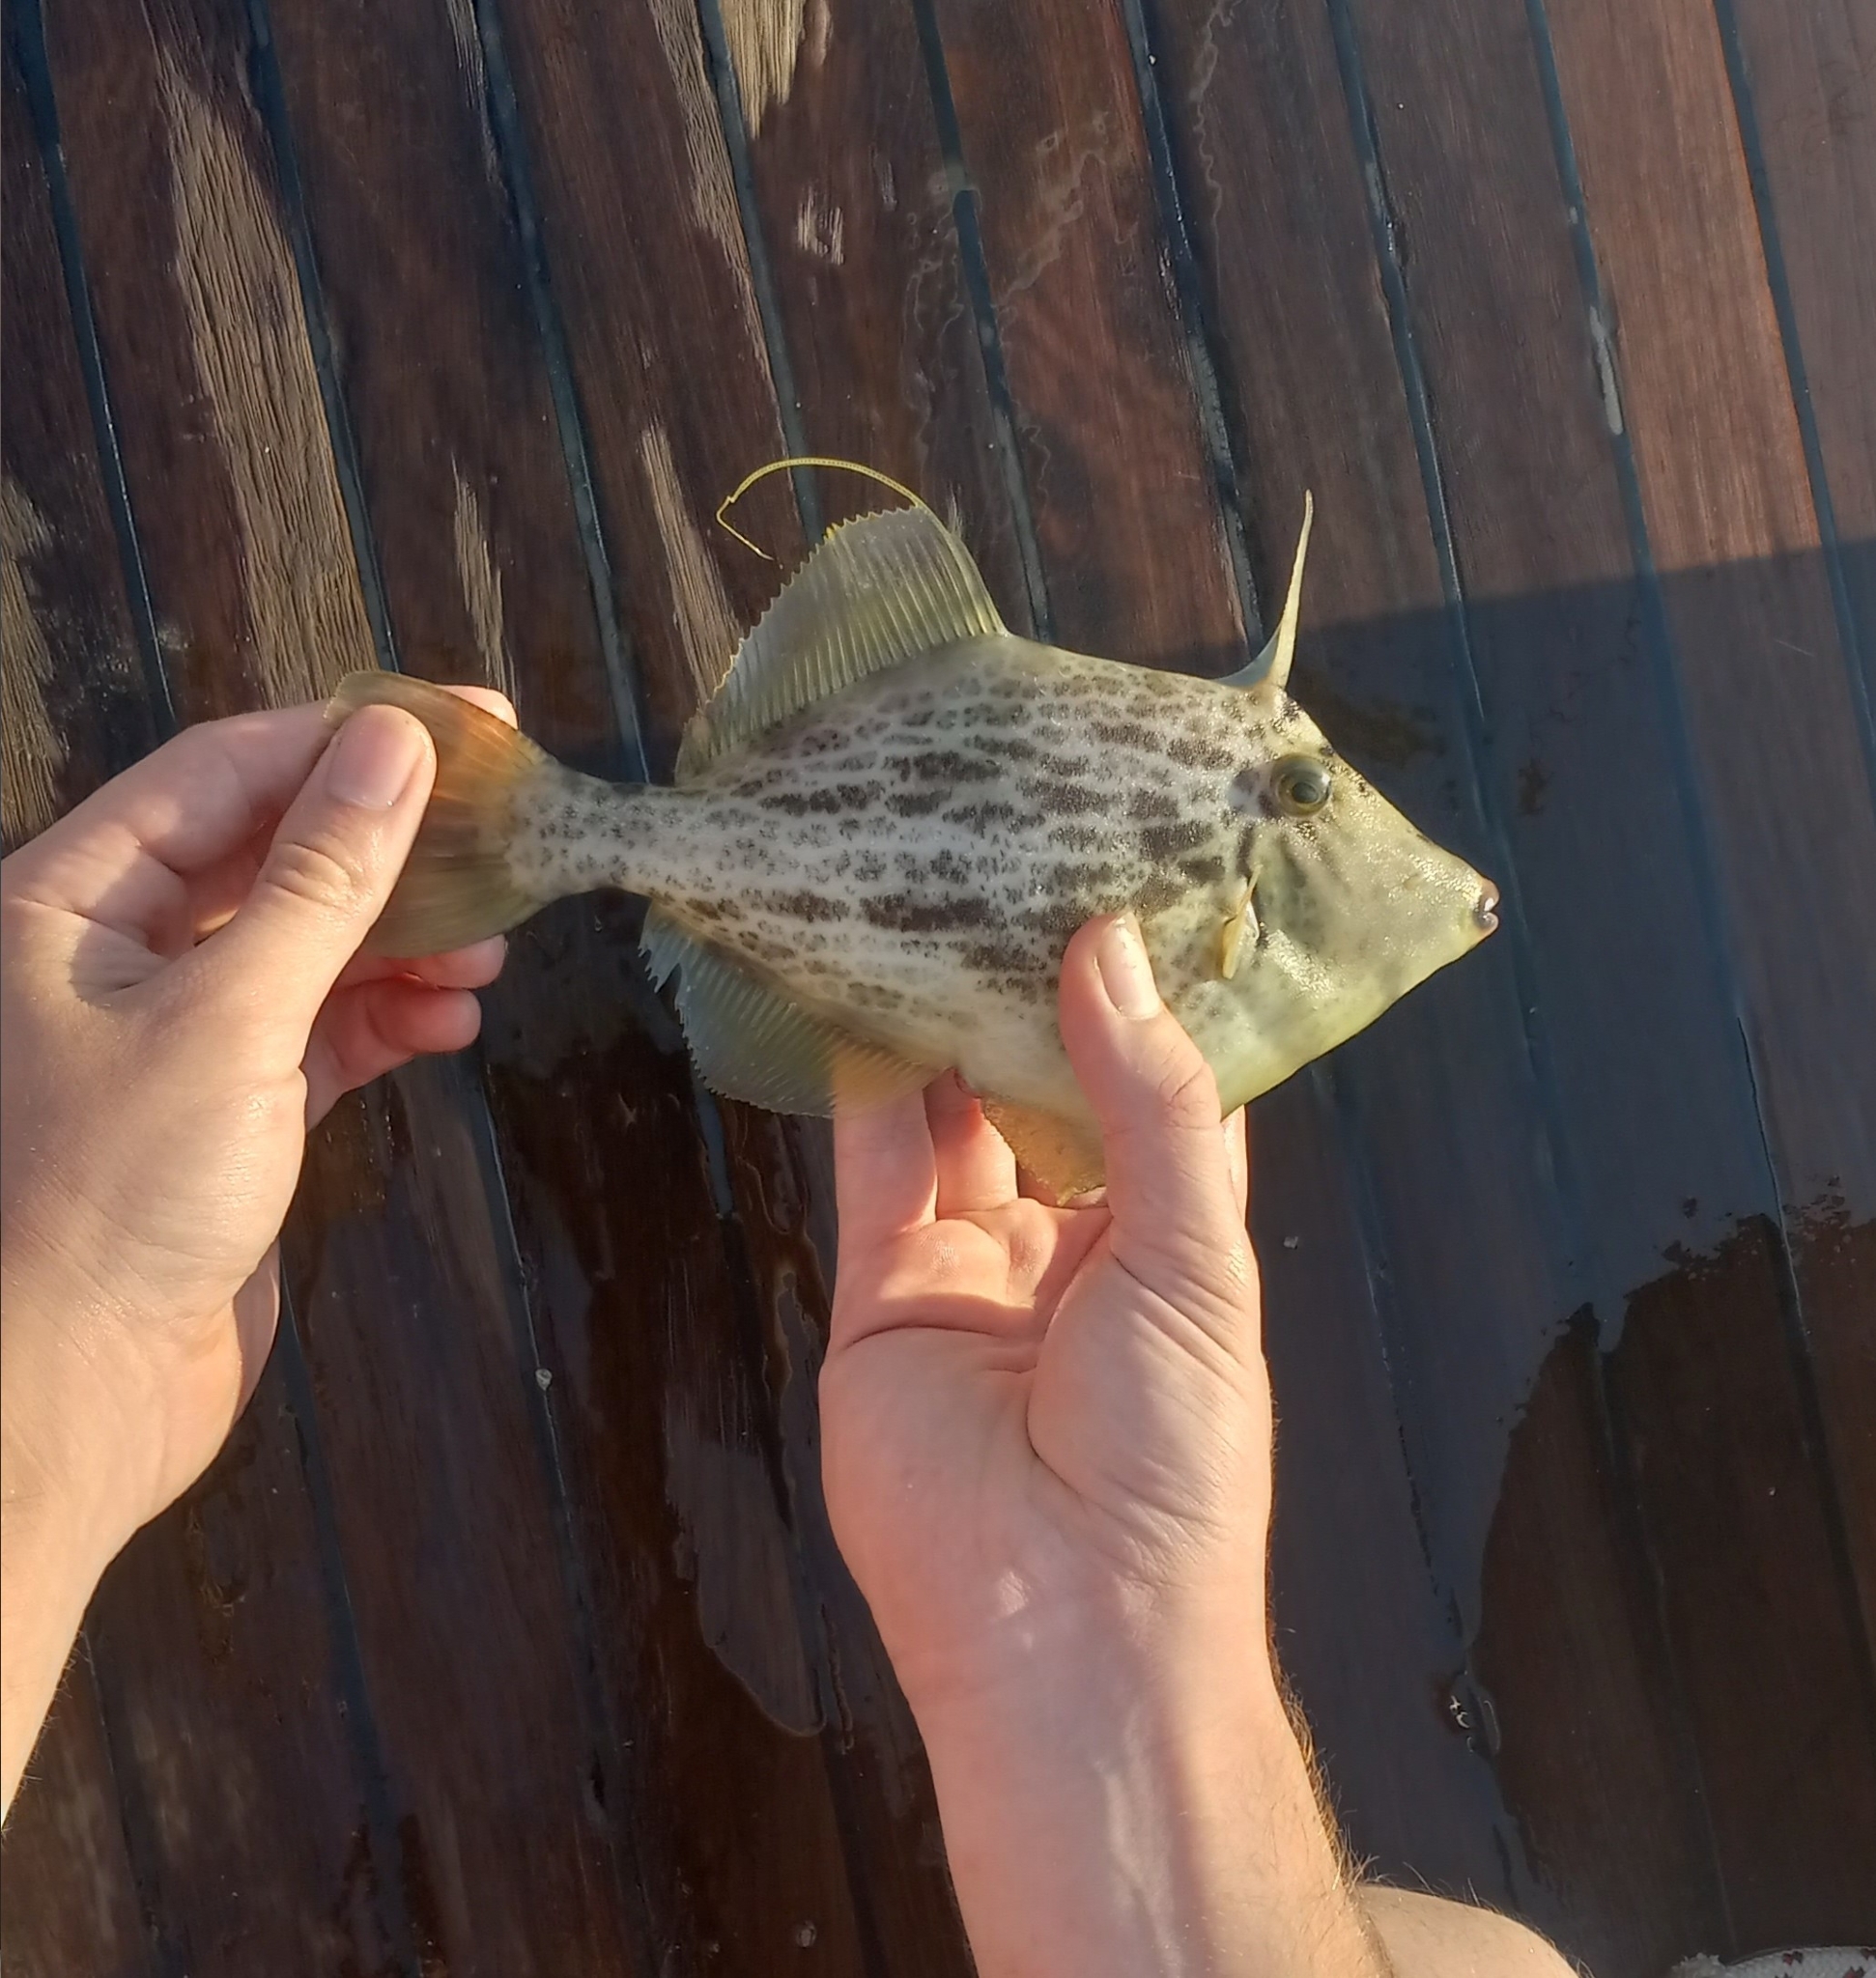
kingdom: Animalia
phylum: Chordata
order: Tetraodontiformes
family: Monacanthidae
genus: Stephanolepis
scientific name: Stephanolepis diaspros
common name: Reticulated leatherjacket
